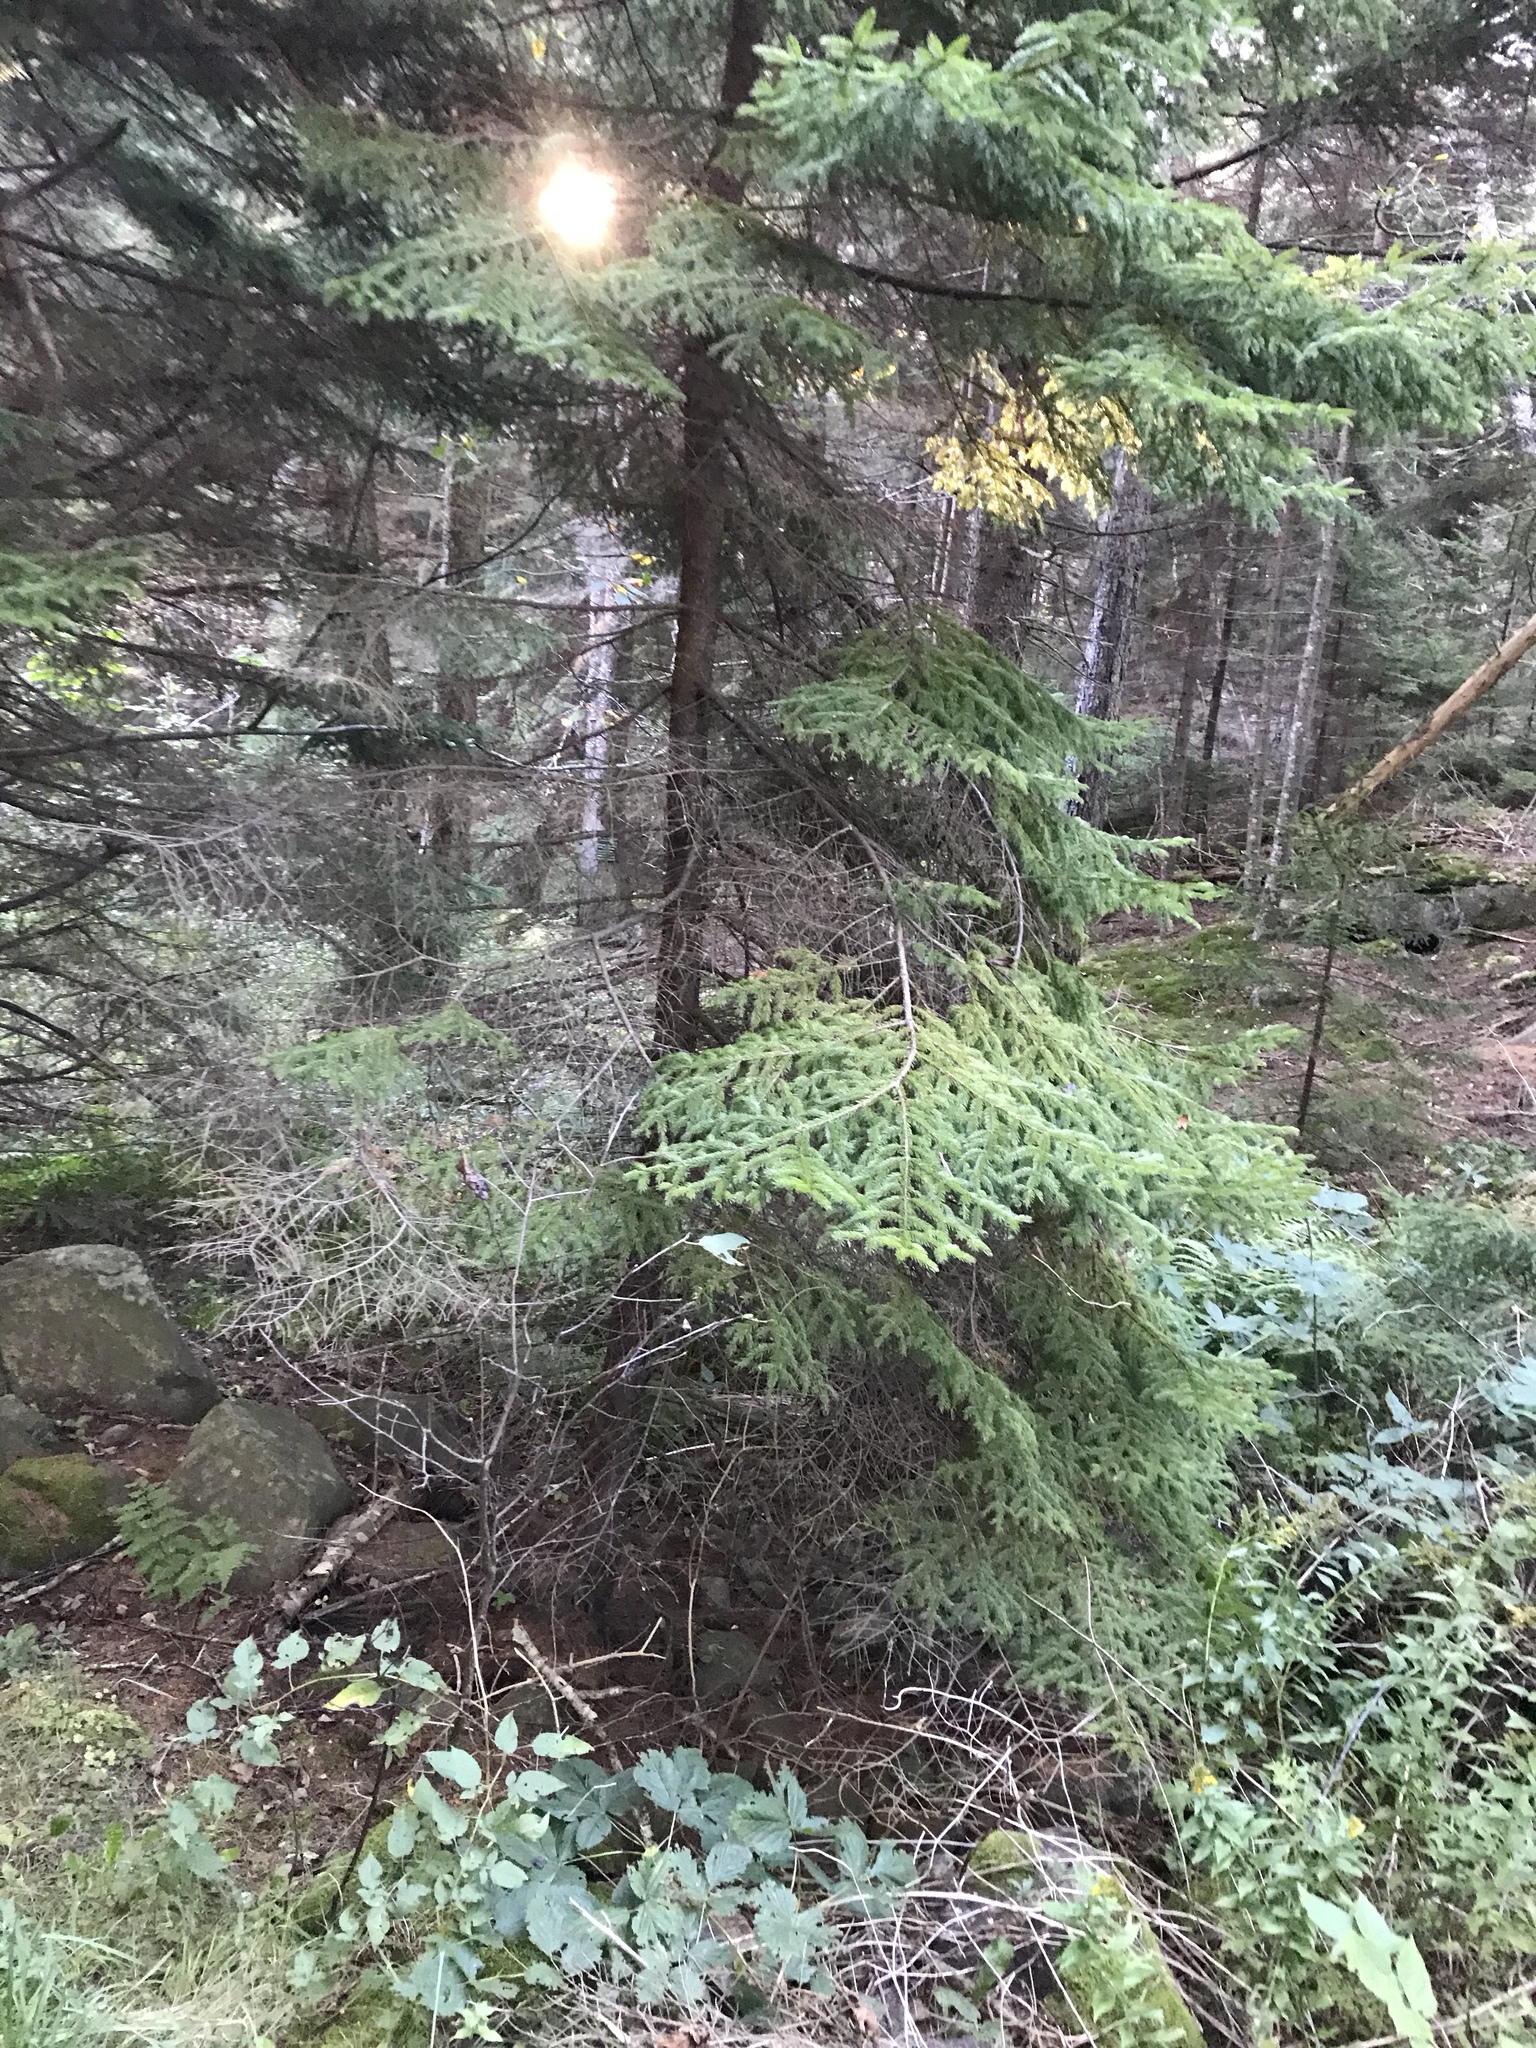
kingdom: Plantae
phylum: Tracheophyta
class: Pinopsida
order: Pinales
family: Pinaceae
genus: Picea
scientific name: Picea rubens
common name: Red spruce
